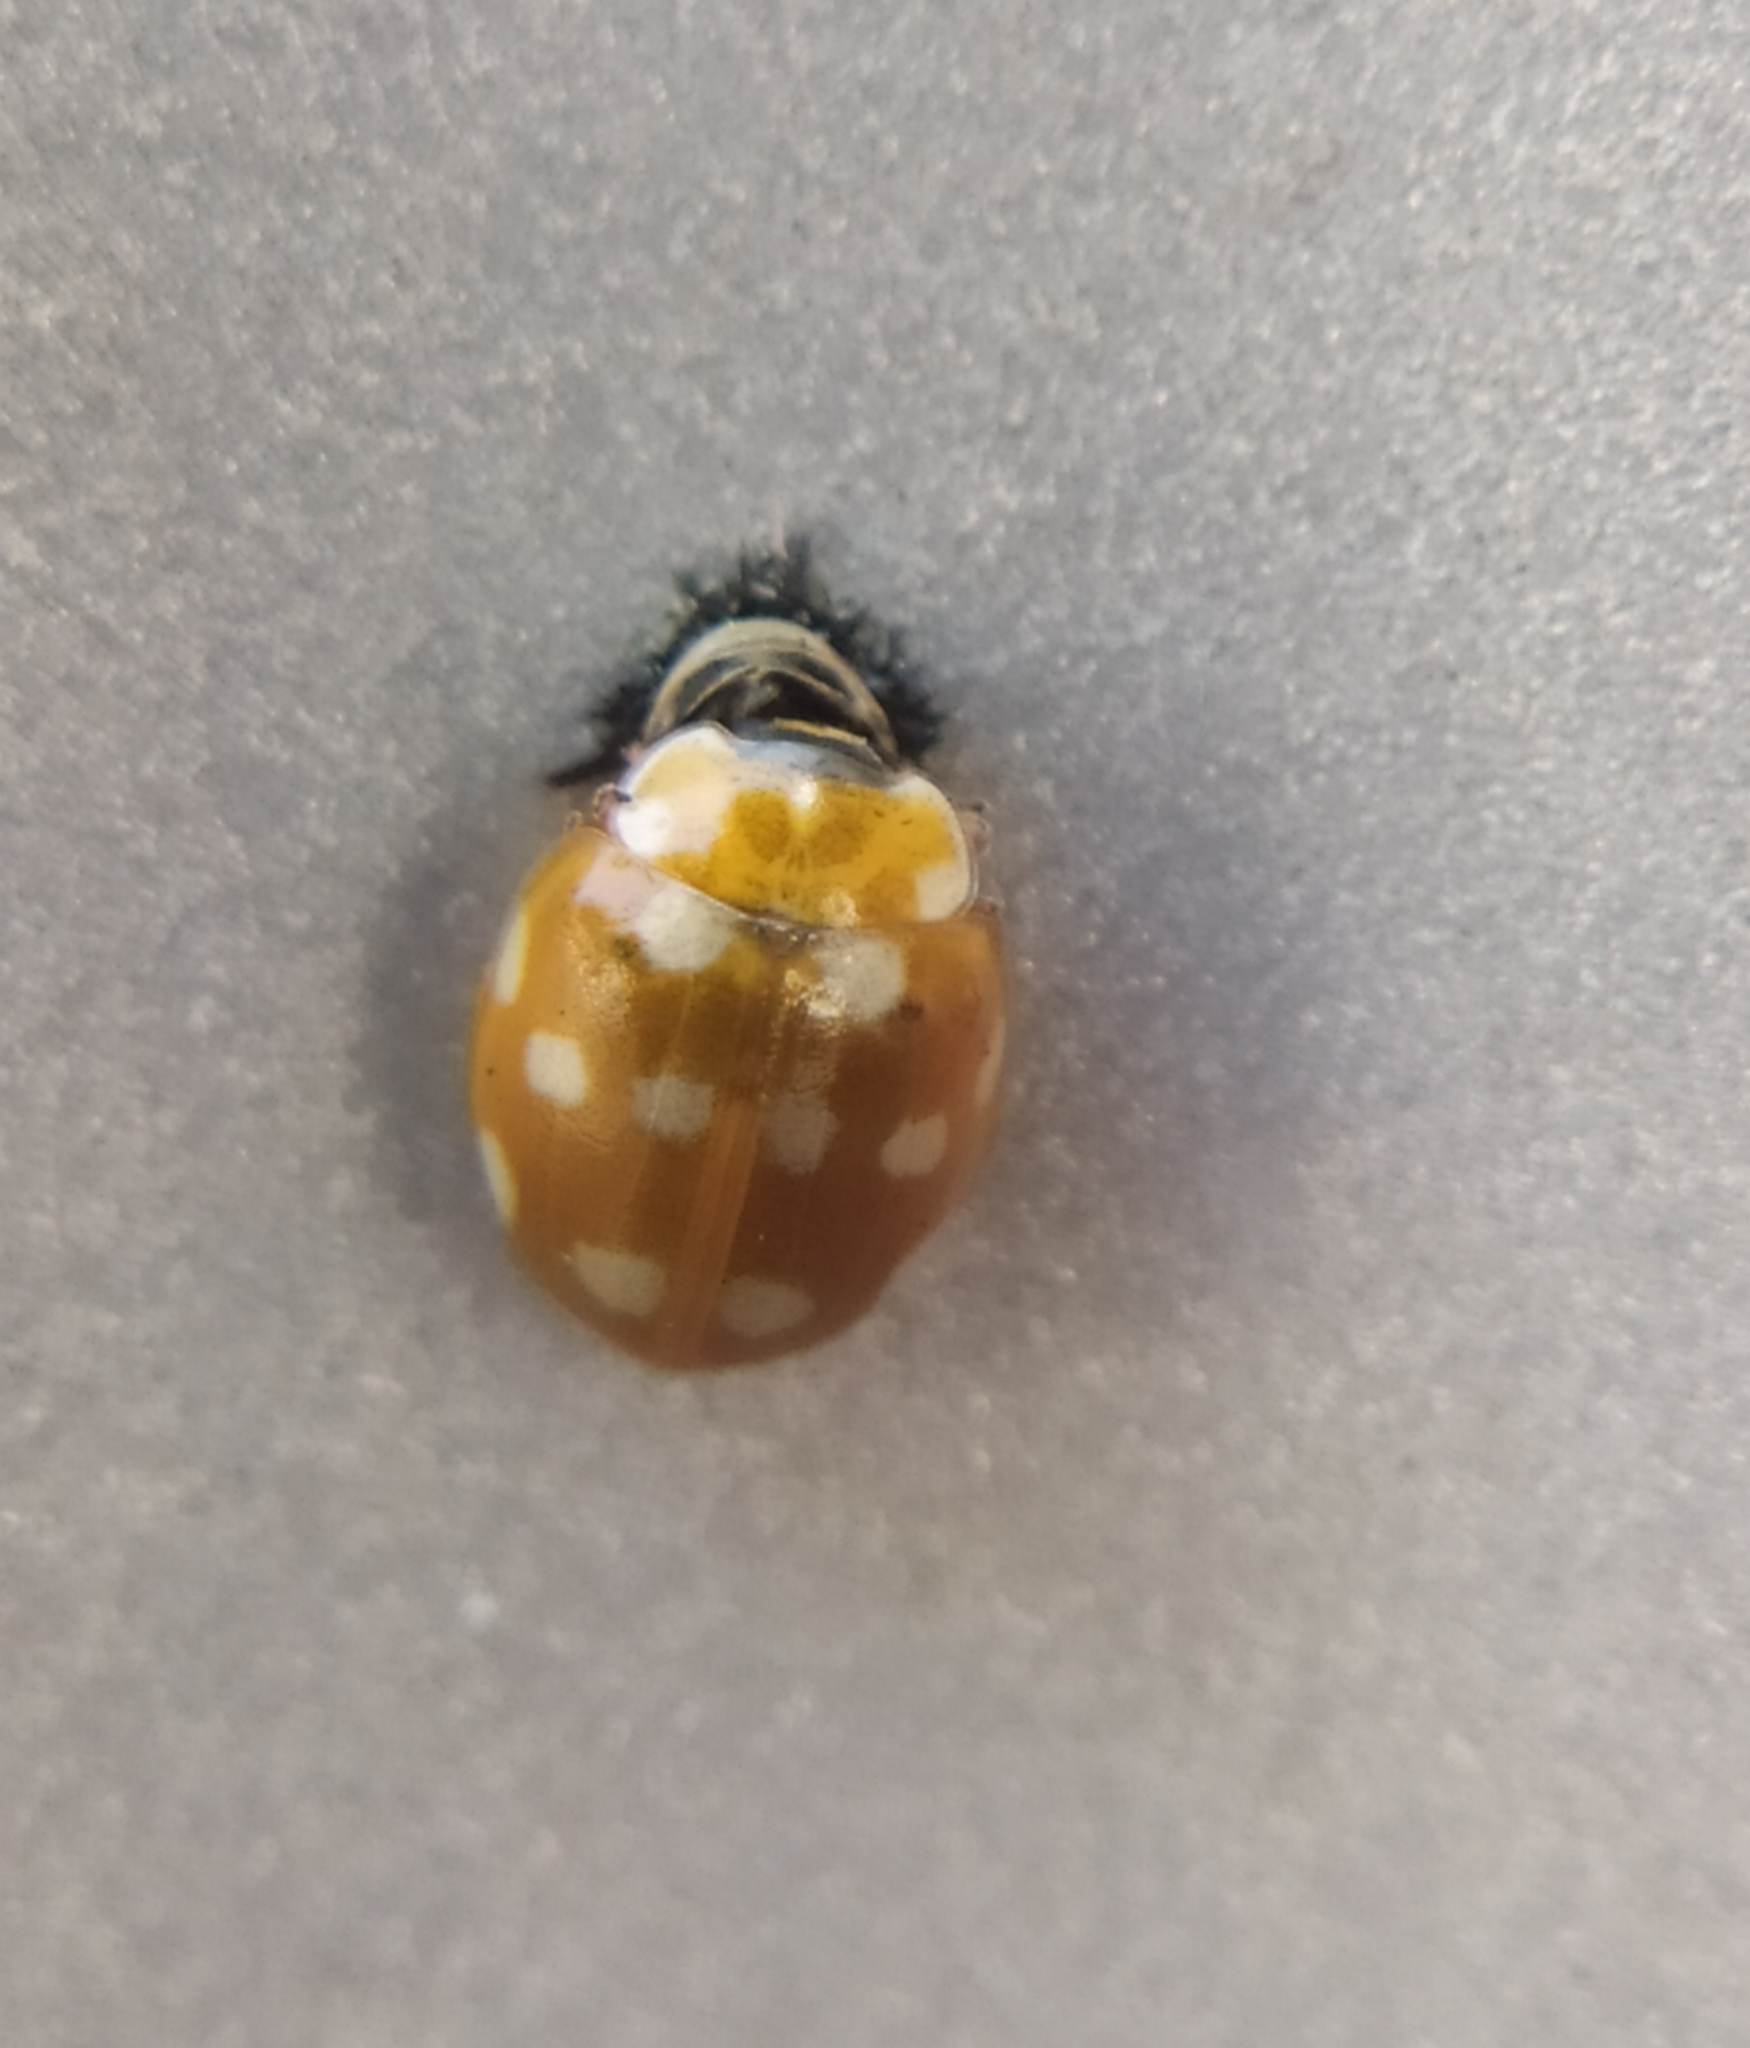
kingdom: Animalia
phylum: Arthropoda
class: Insecta
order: Coleoptera
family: Coccinellidae
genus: Calvia
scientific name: Calvia quatuordecimguttata
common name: Cream-spot ladybird
